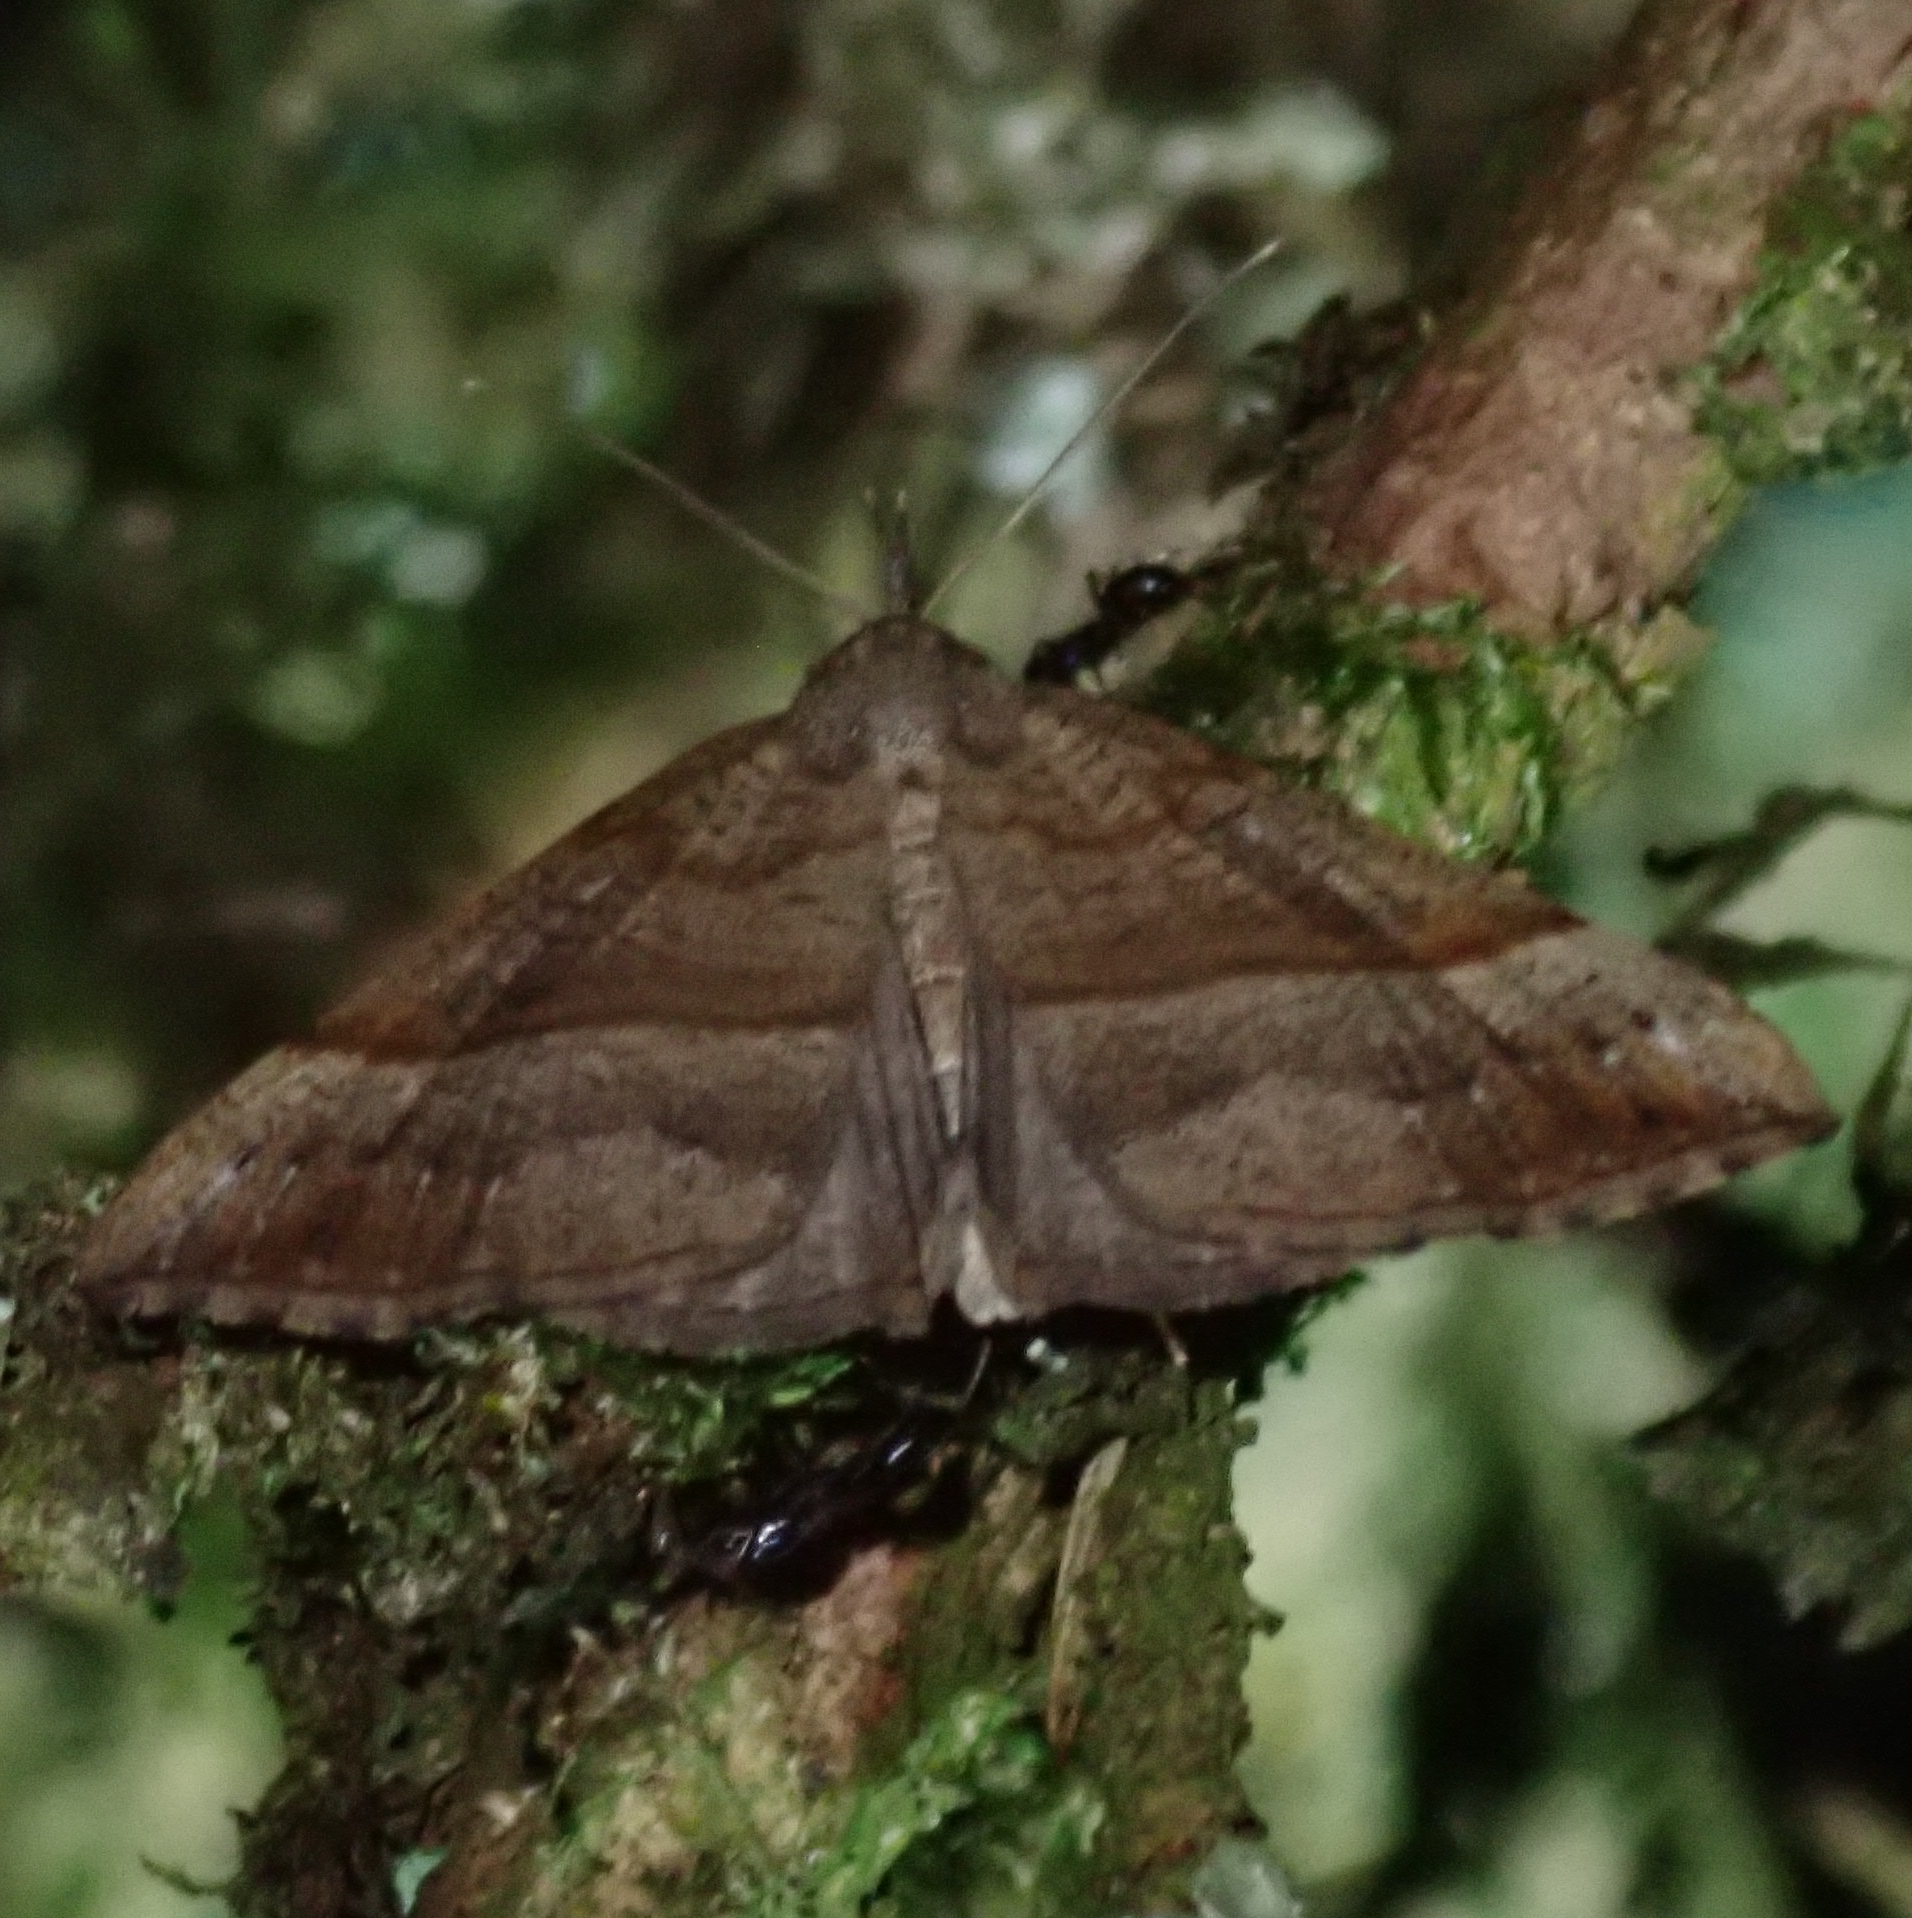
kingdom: Animalia
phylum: Arthropoda
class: Insecta
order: Lepidoptera
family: Erebidae
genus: Hypena
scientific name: Hypena proboscidalis
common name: Snout
